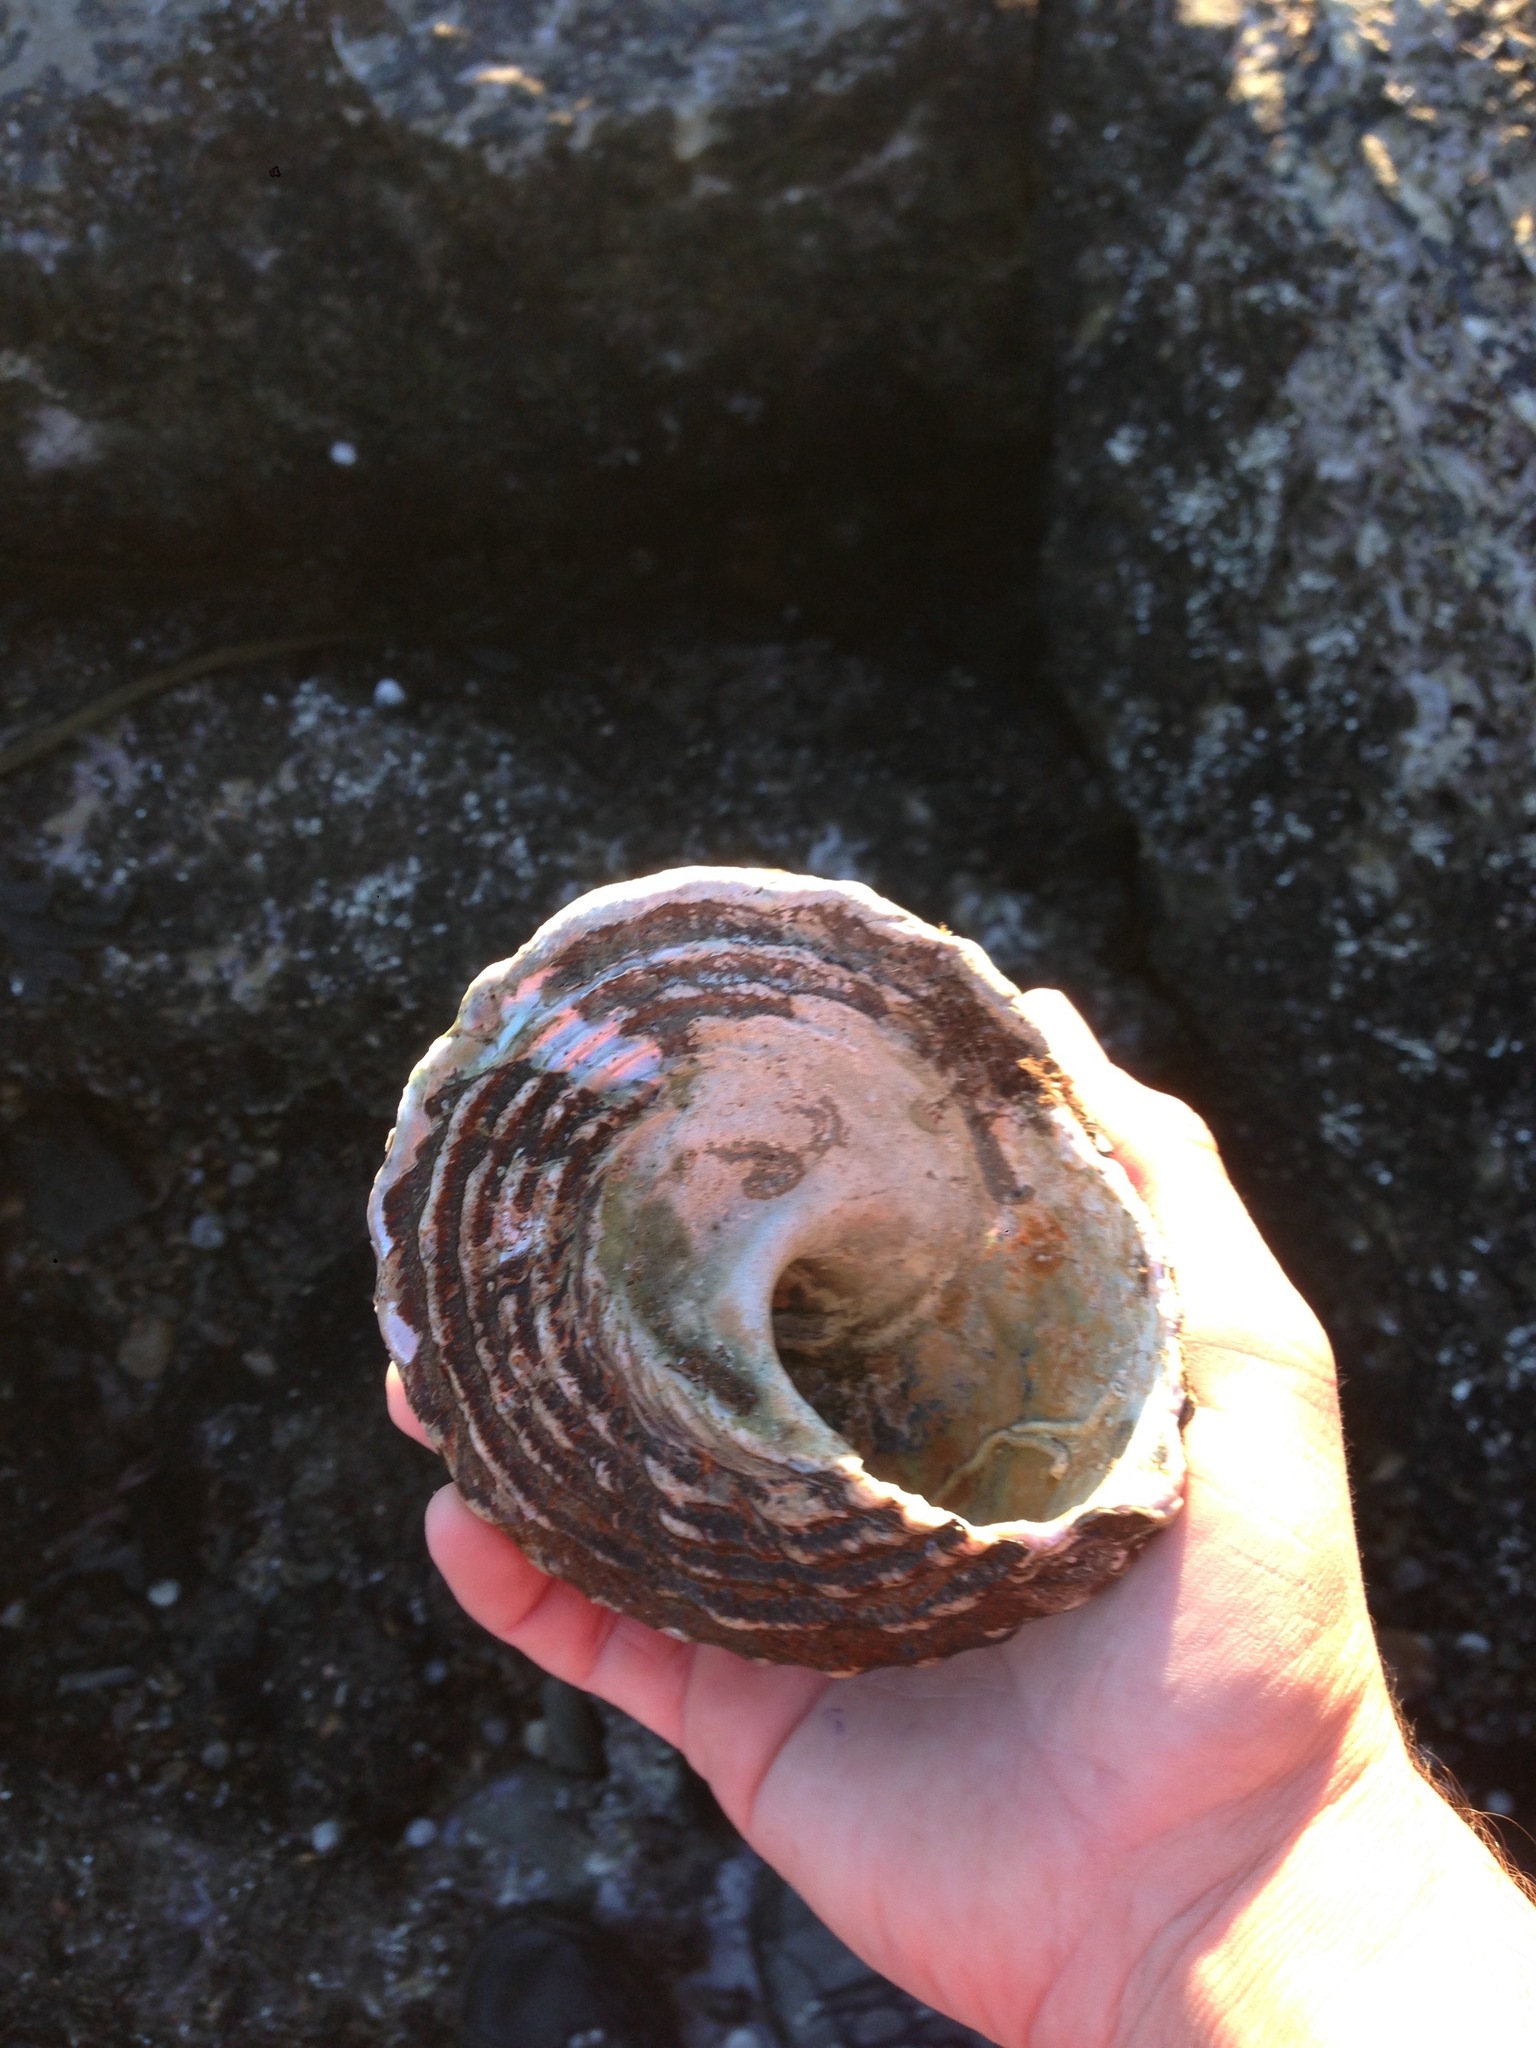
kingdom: Animalia
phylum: Mollusca
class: Gastropoda
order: Trochida
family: Turbinidae
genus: Megastraea
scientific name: Megastraea undosa
